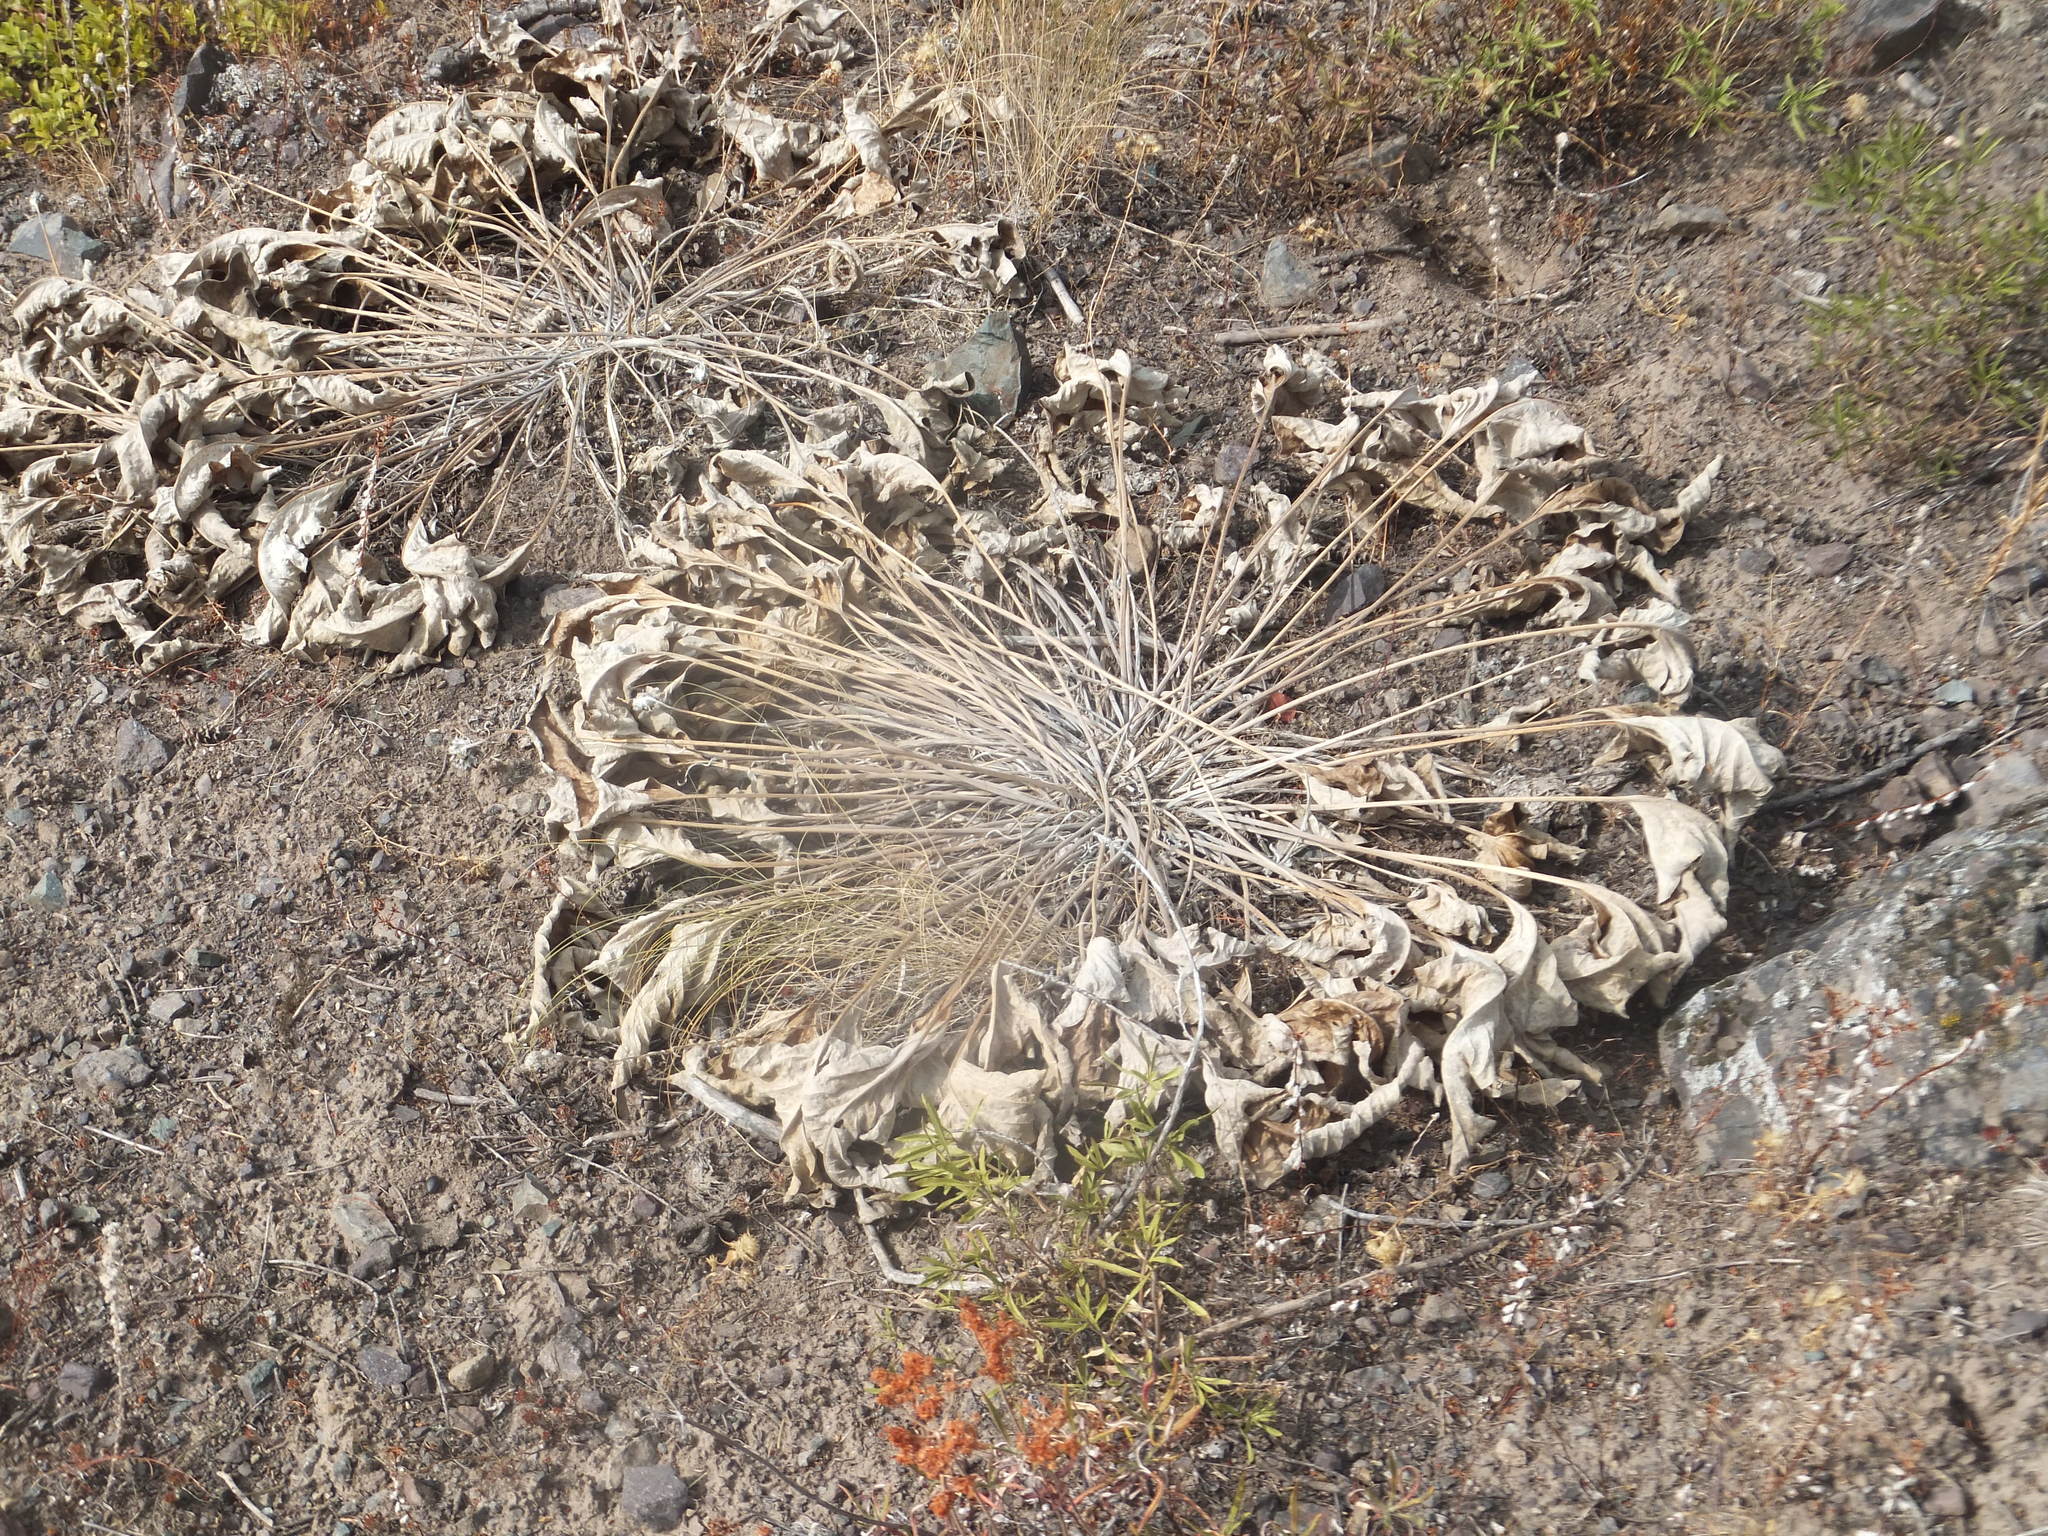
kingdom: Plantae
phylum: Tracheophyta
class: Magnoliopsida
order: Asterales
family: Asteraceae
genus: Wyethia
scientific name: Wyethia sagittata
